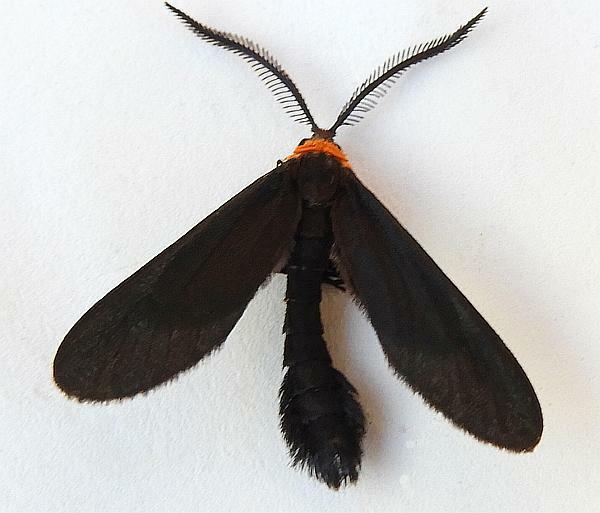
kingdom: Animalia
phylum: Arthropoda
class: Insecta
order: Lepidoptera
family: Zygaenidae
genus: Harrisina
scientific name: Harrisina americana
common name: Grapeleaf skeletonizer moth
